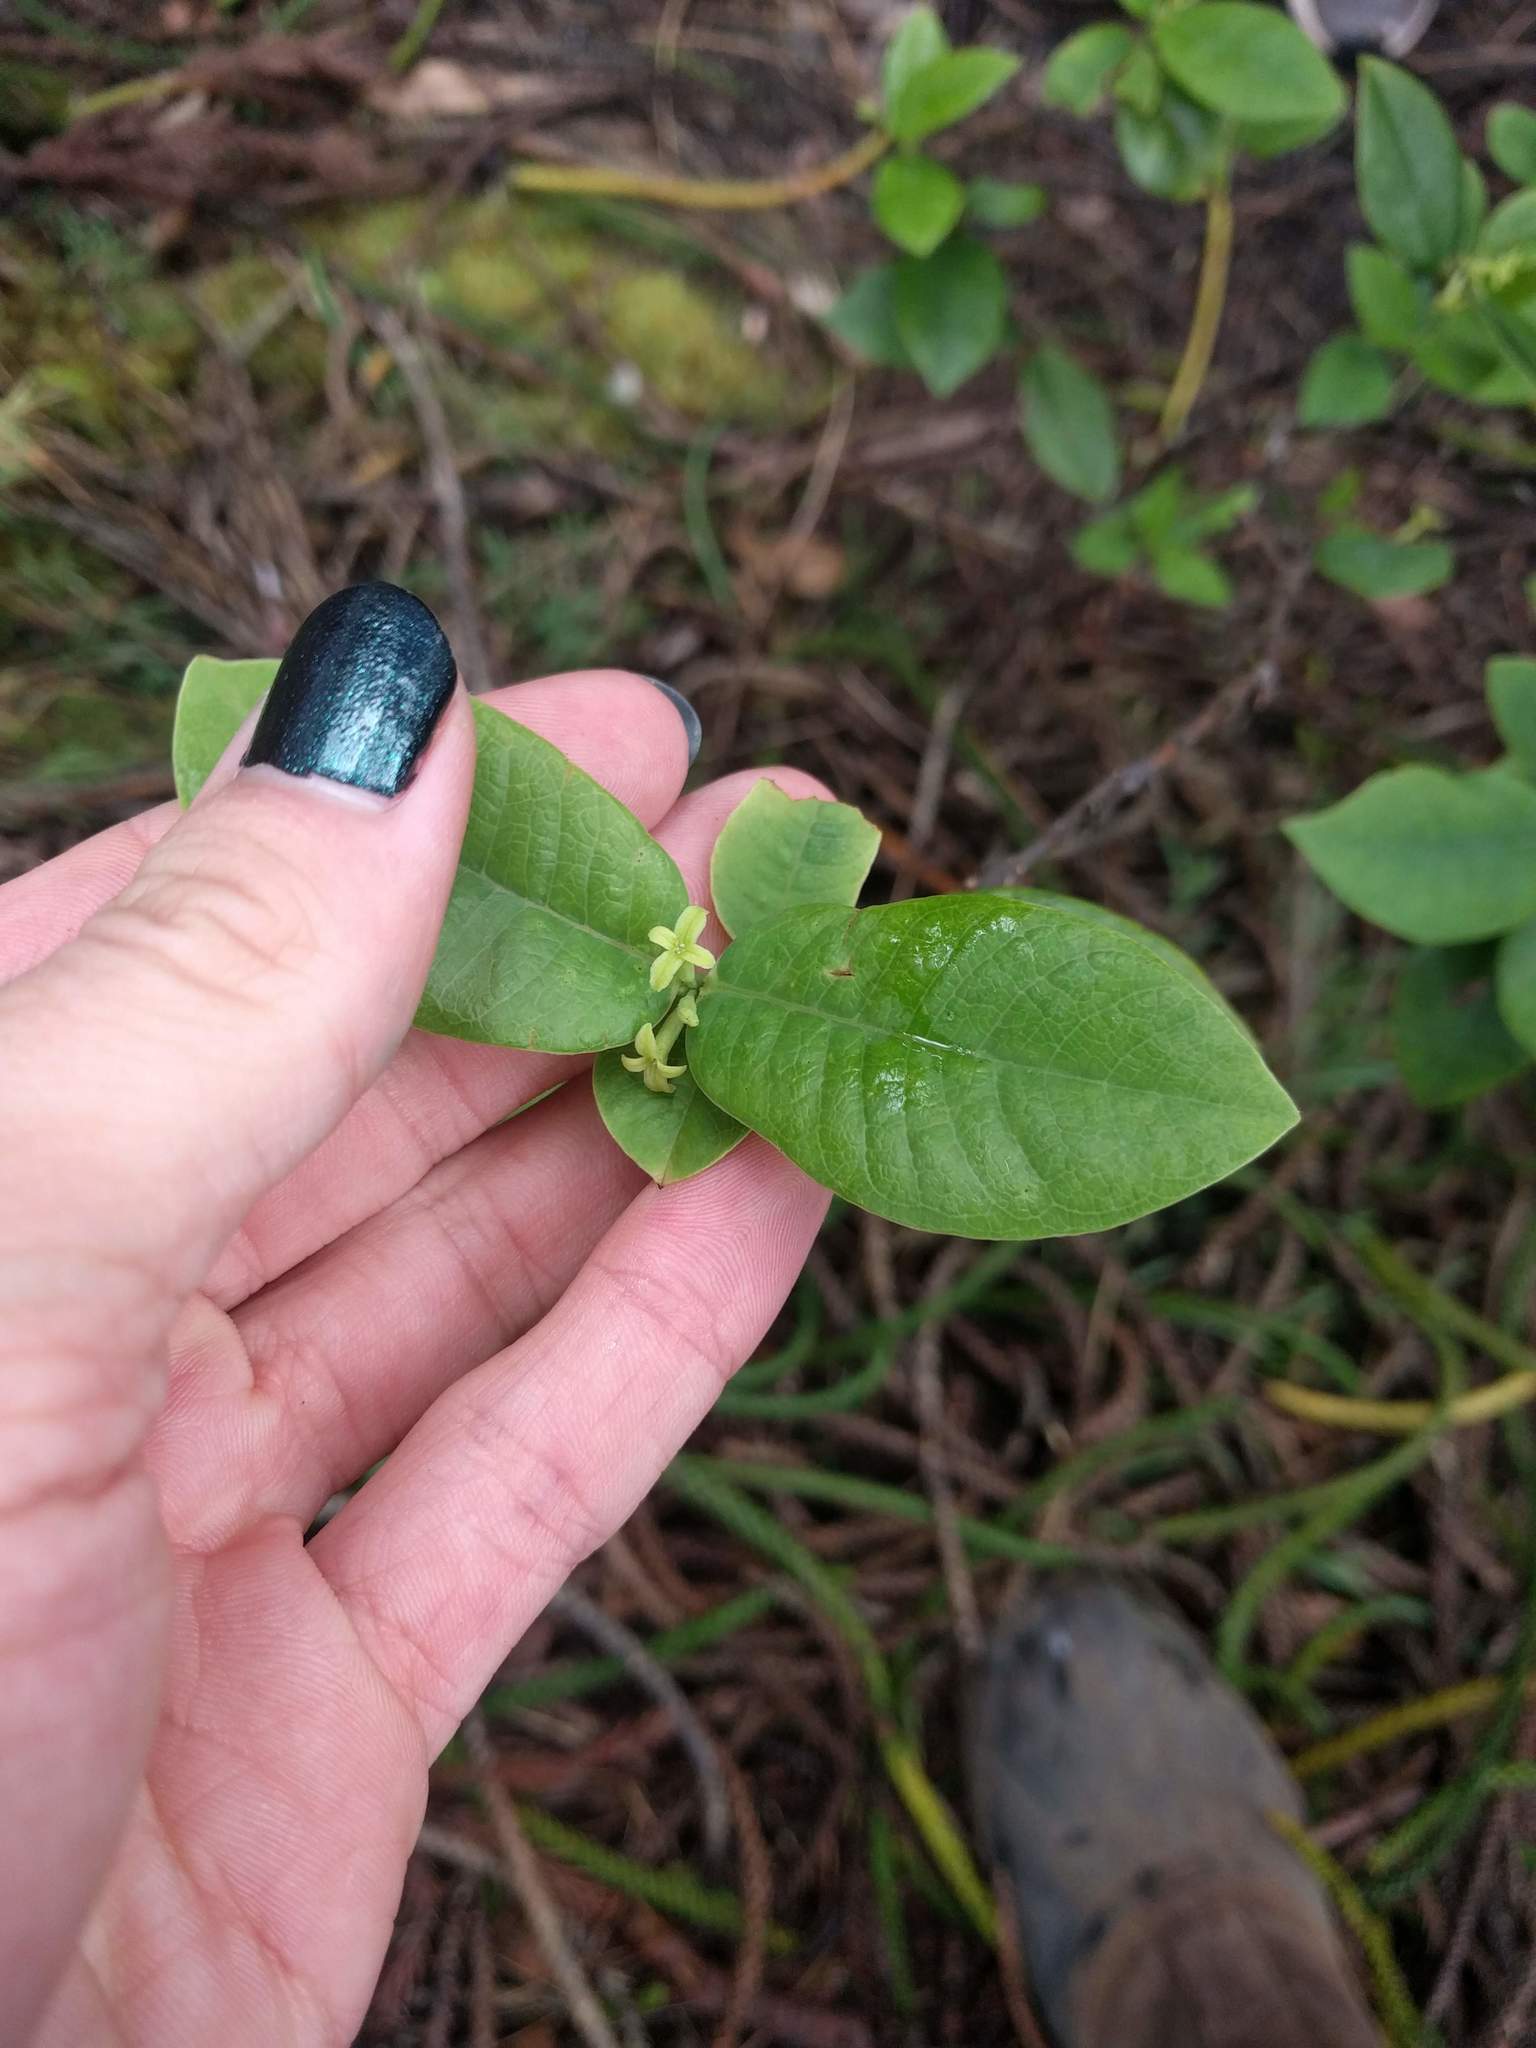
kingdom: Plantae
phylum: Tracheophyta
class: Magnoliopsida
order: Malvales
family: Thymelaeaceae
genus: Wikstroemia
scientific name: Wikstroemia oahuensis
